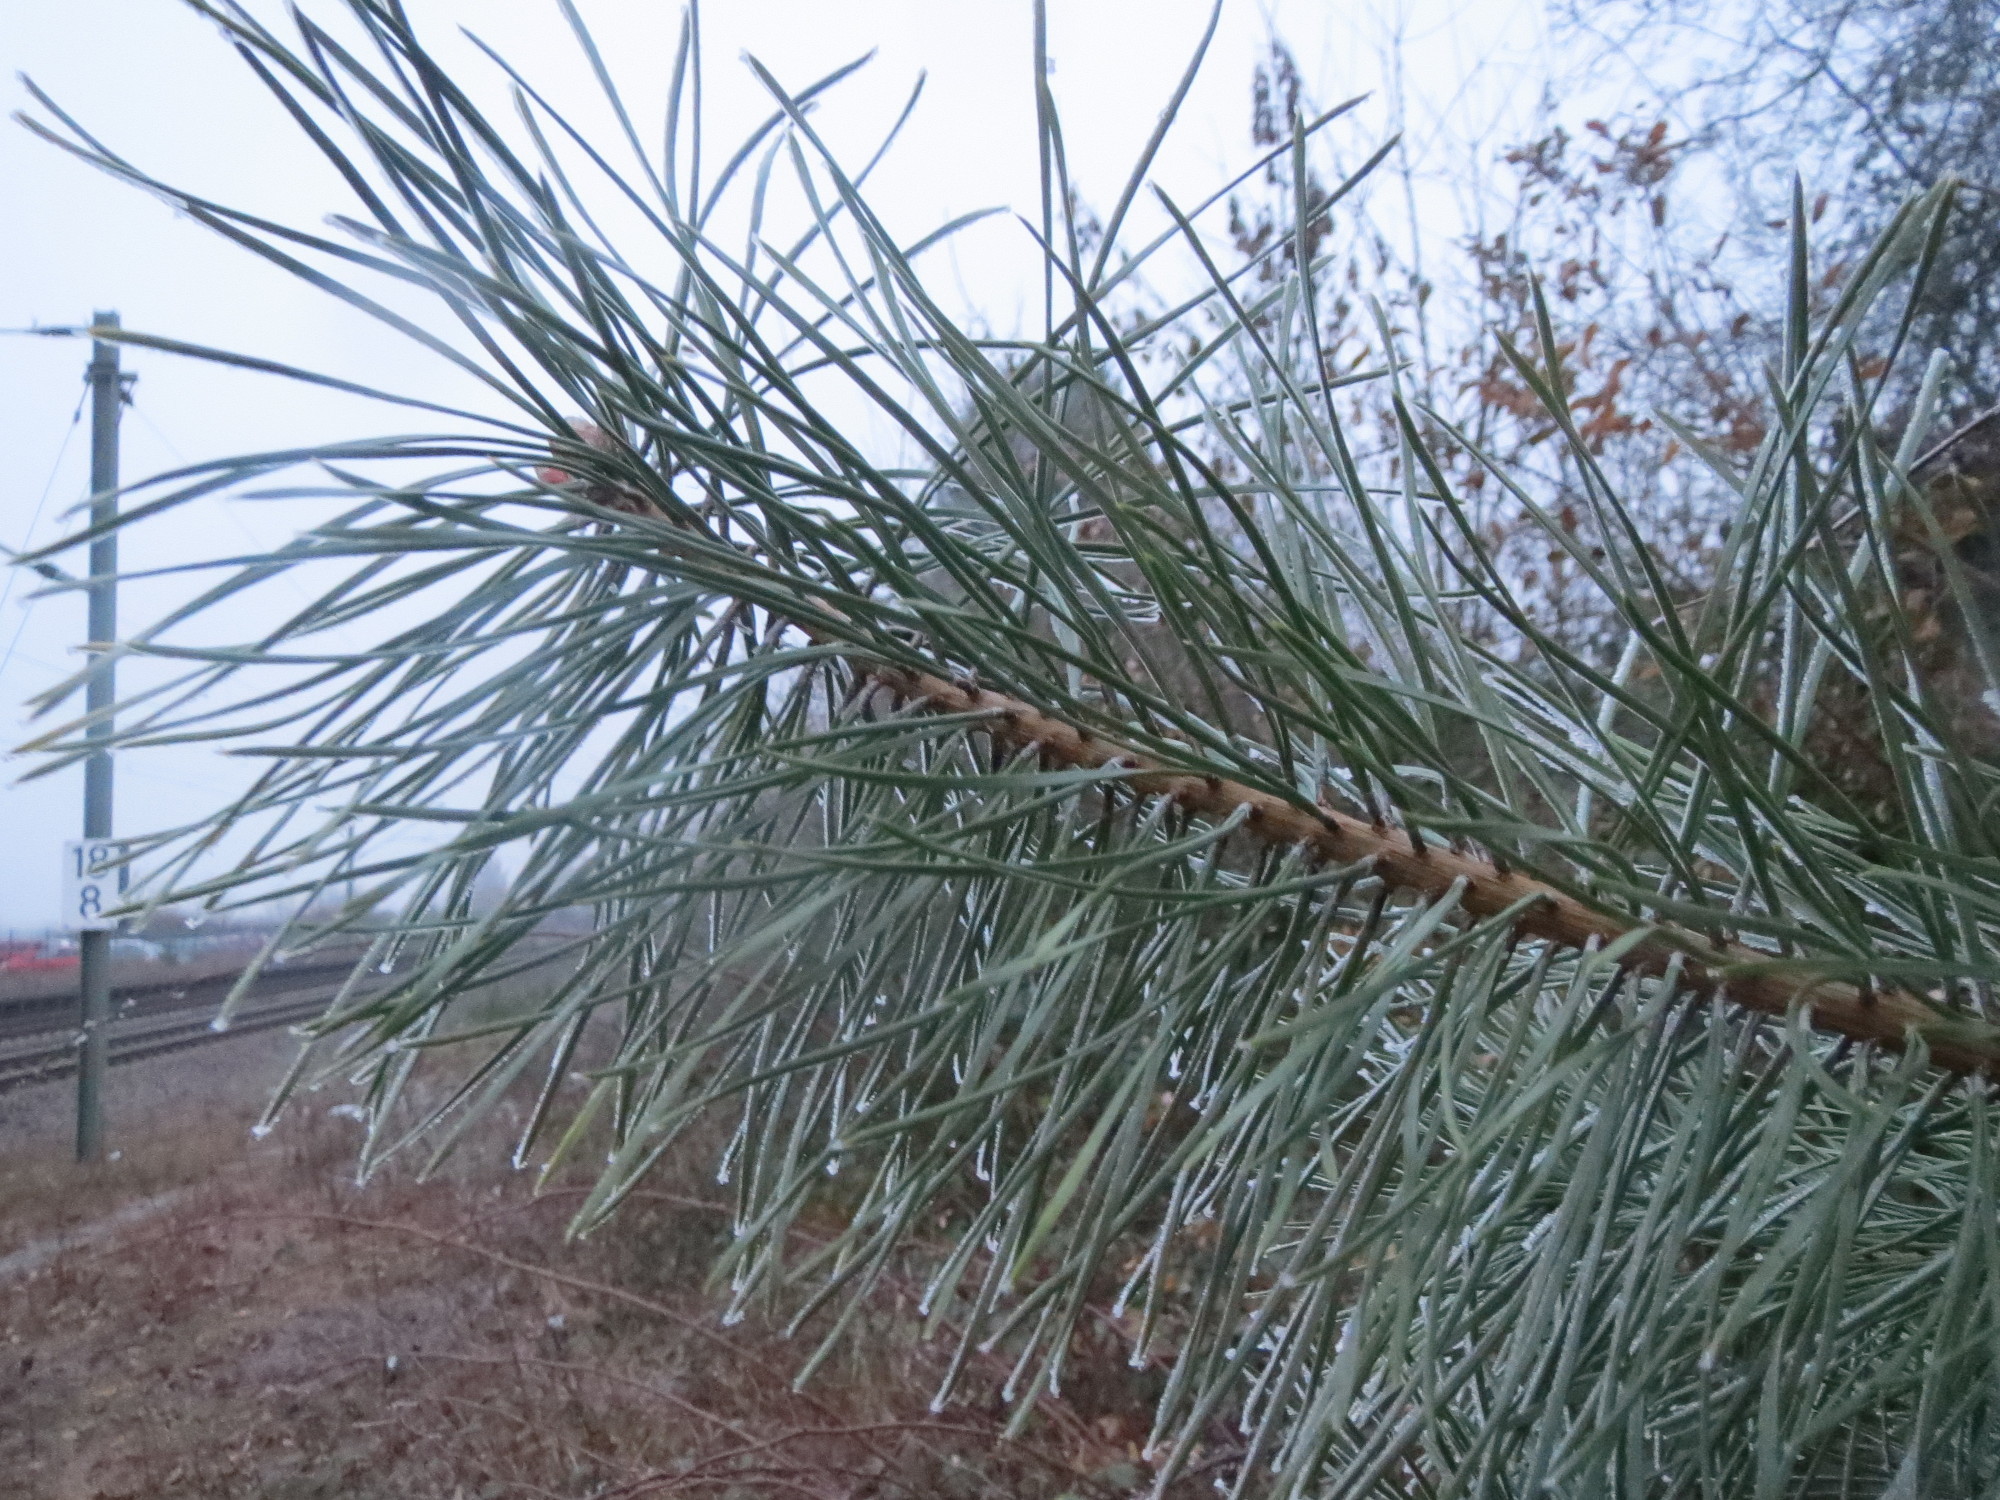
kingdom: Plantae
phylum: Tracheophyta
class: Pinopsida
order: Pinales
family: Pinaceae
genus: Pinus
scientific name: Pinus sylvestris
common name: Scots pine
